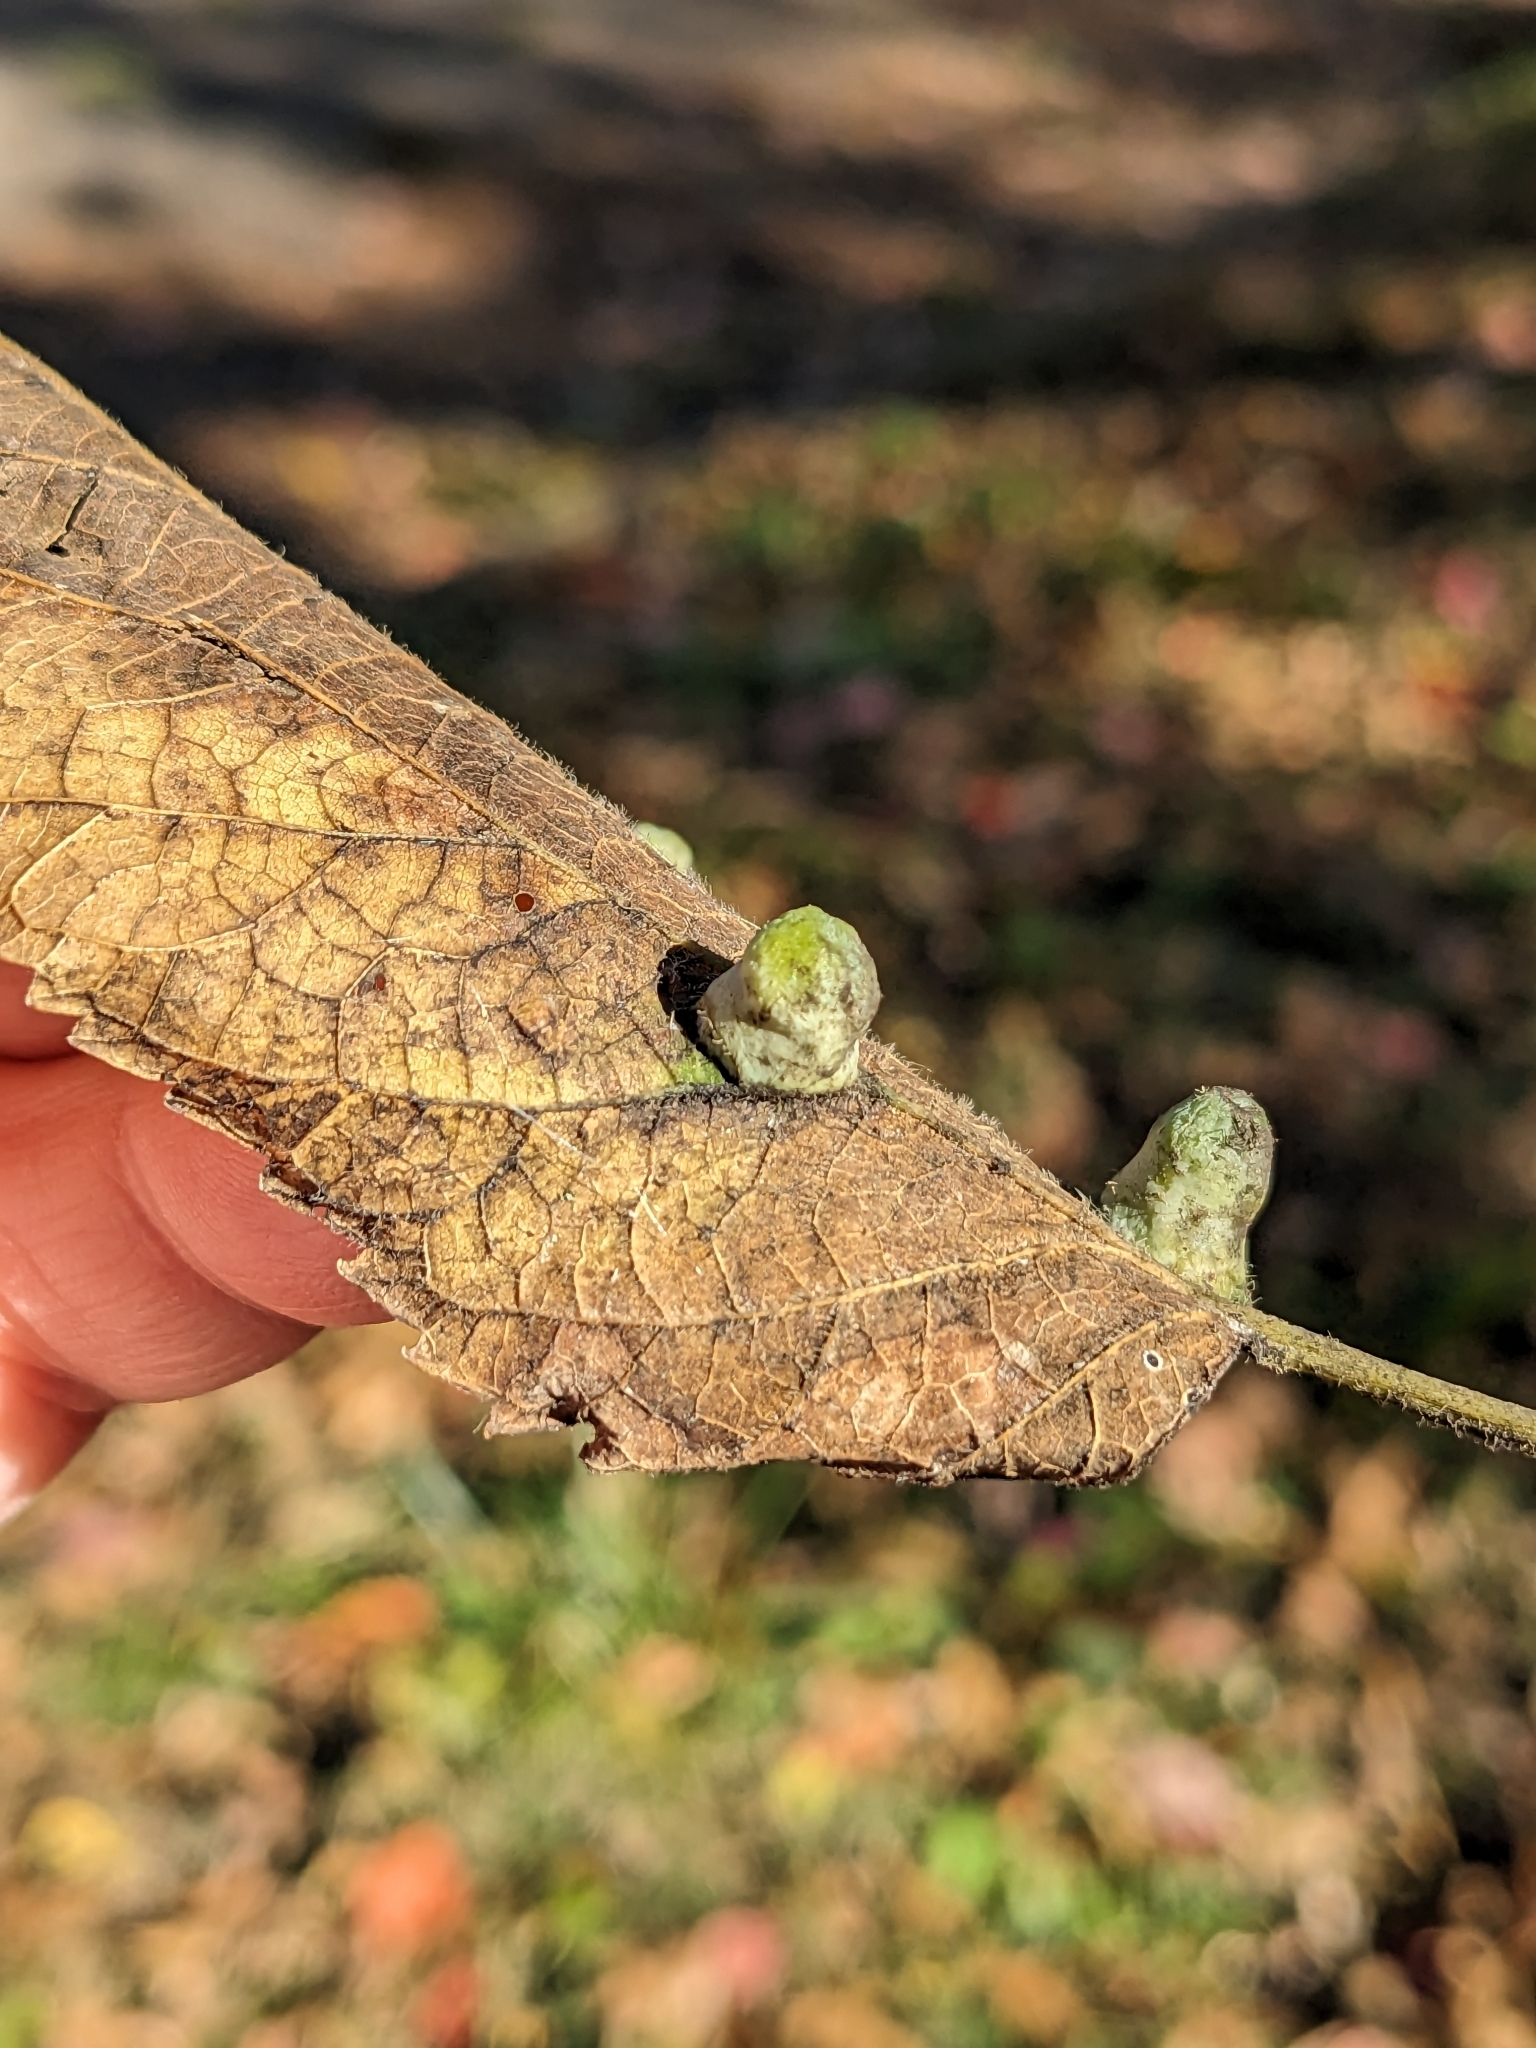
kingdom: Animalia
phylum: Arthropoda
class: Insecta
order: Hemiptera
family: Aphalaridae
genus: Pachypsylla
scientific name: Pachypsylla celtidismamma
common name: Hackberry nipplegall psyllid
